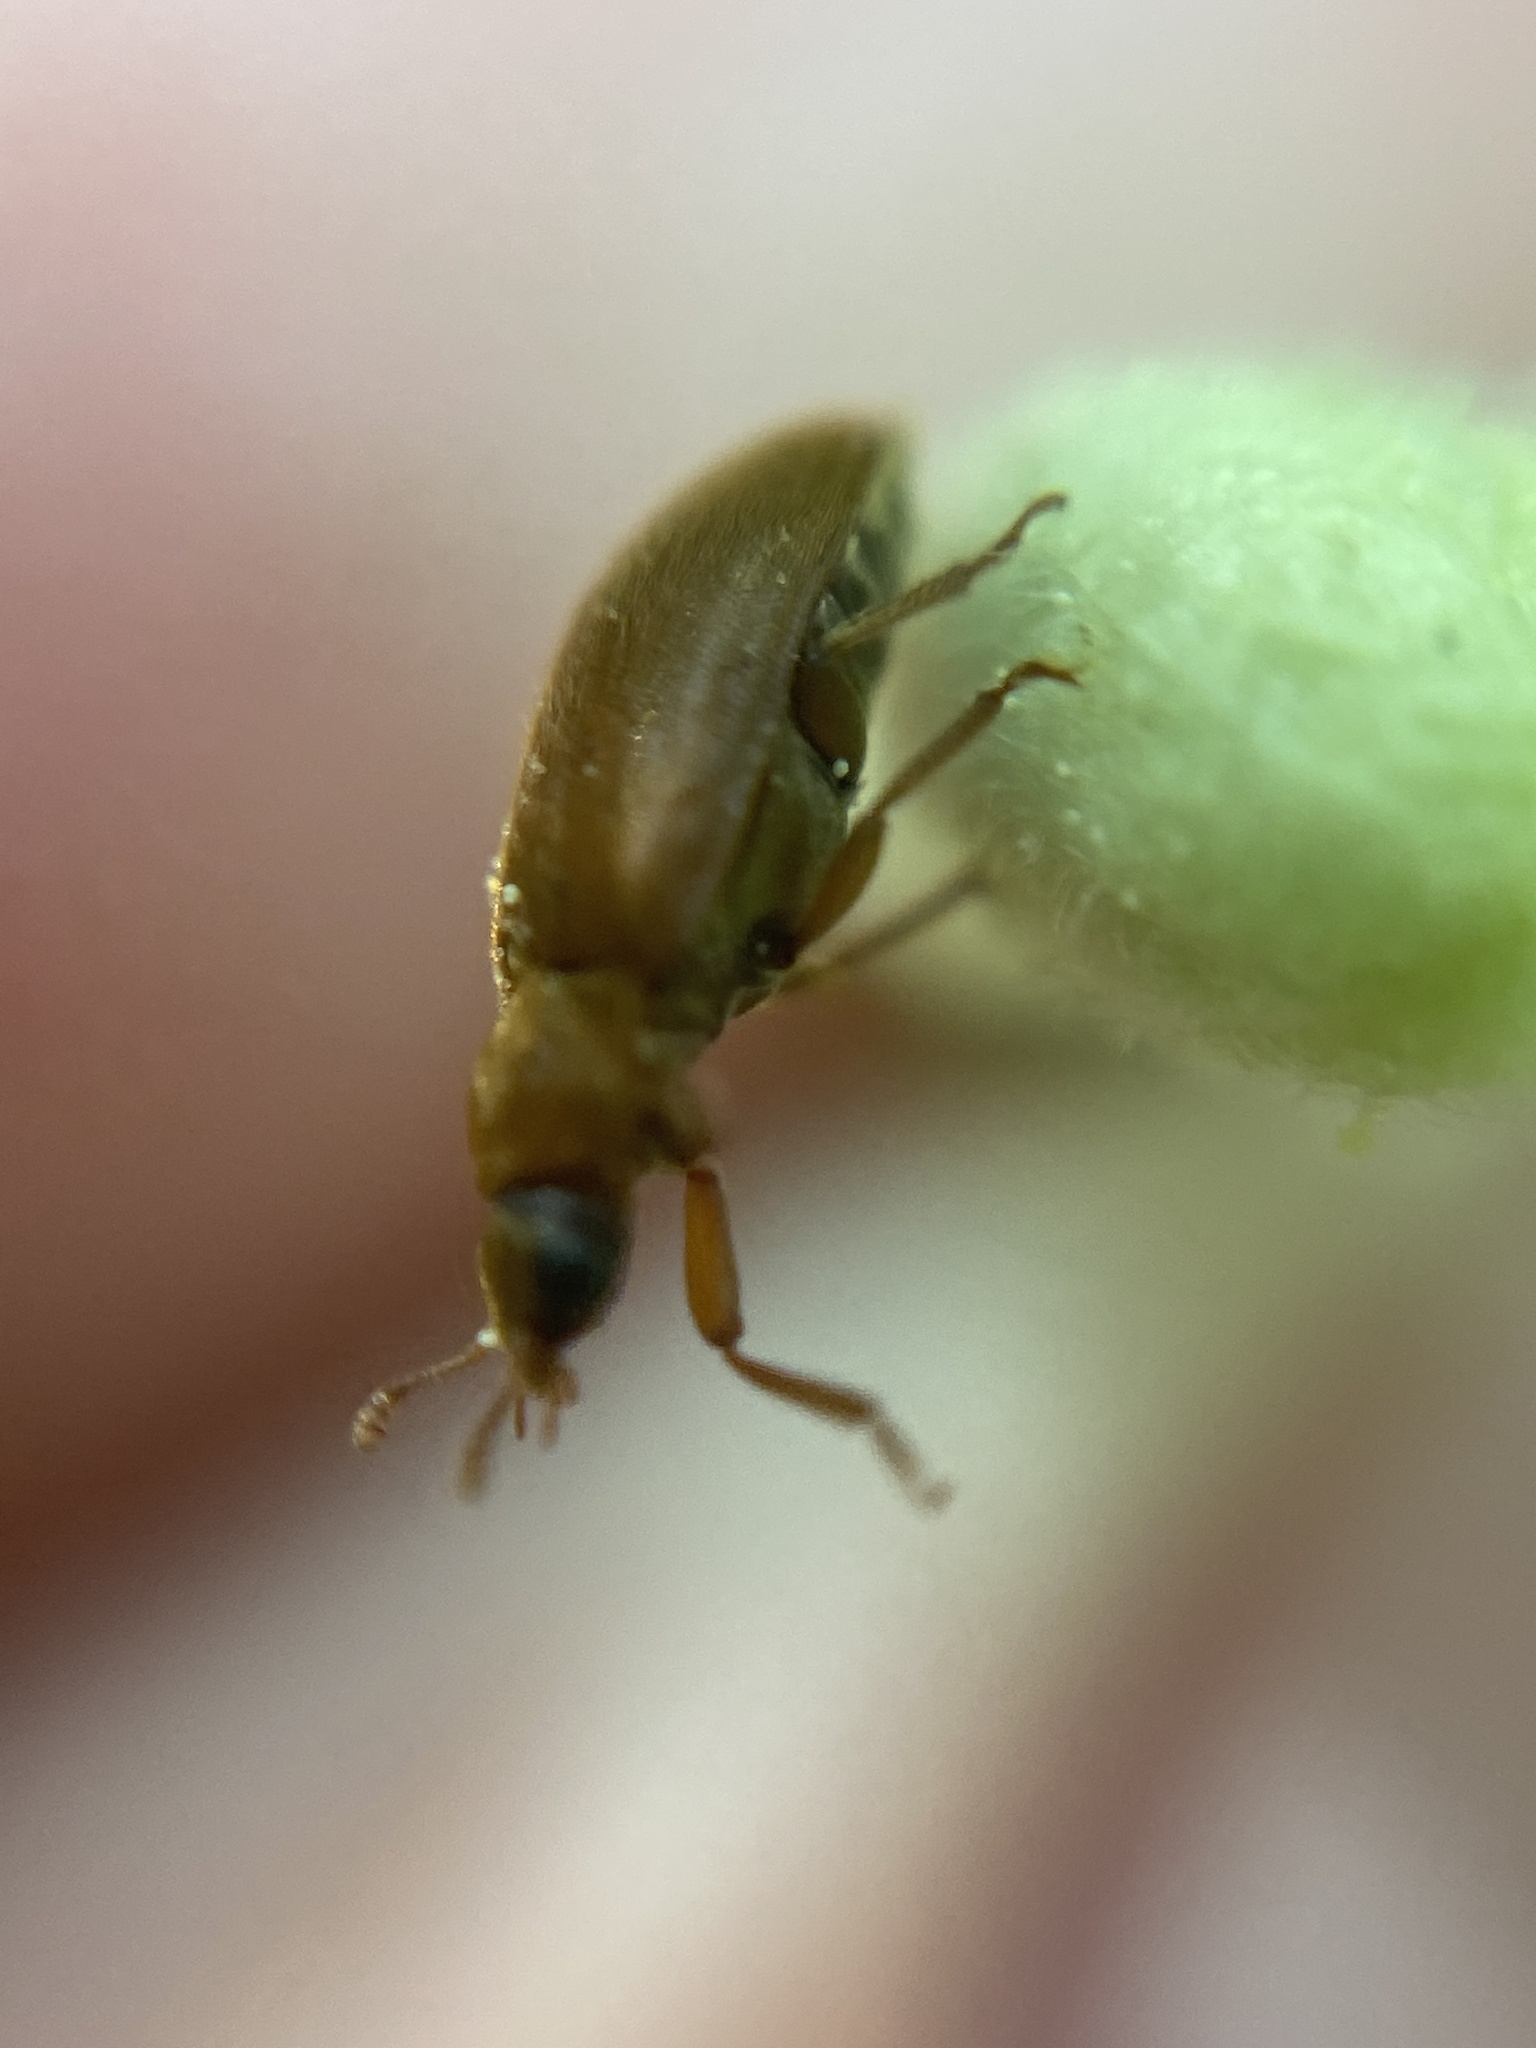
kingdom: Animalia
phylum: Arthropoda
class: Insecta
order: Coleoptera
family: Byturidae
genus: Byturus
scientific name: Byturus ochraceus
